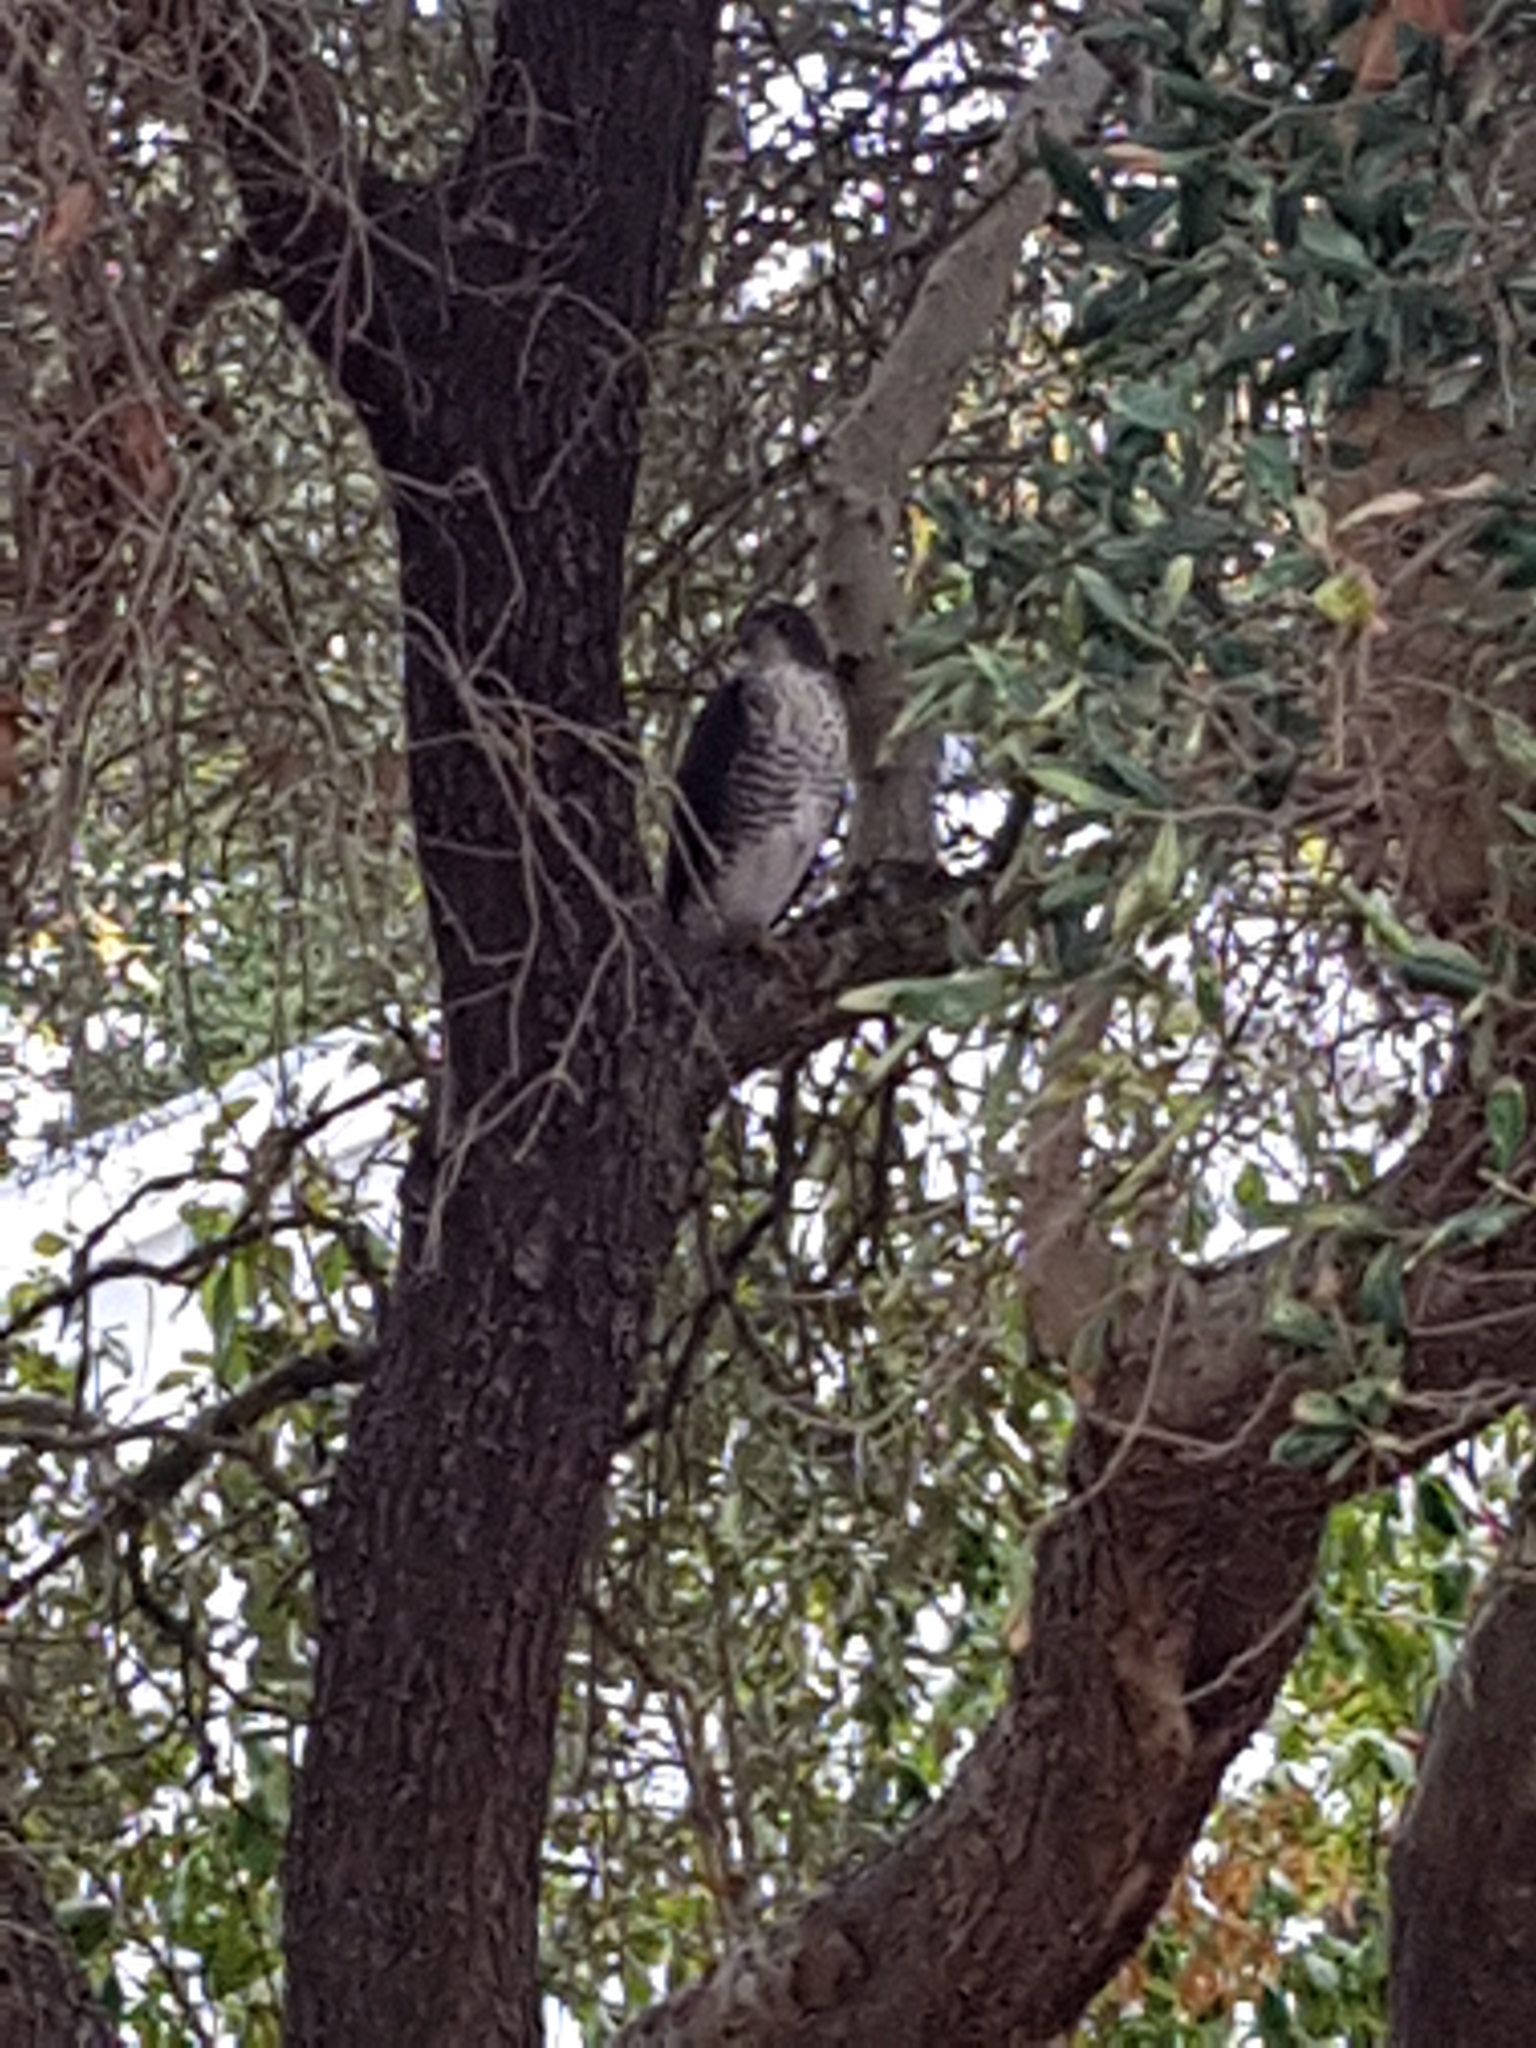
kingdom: Animalia
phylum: Chordata
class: Aves
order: Accipitriformes
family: Accipitridae
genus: Accipiter
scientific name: Accipiter melanoleucus
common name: Black sparrowhawk
